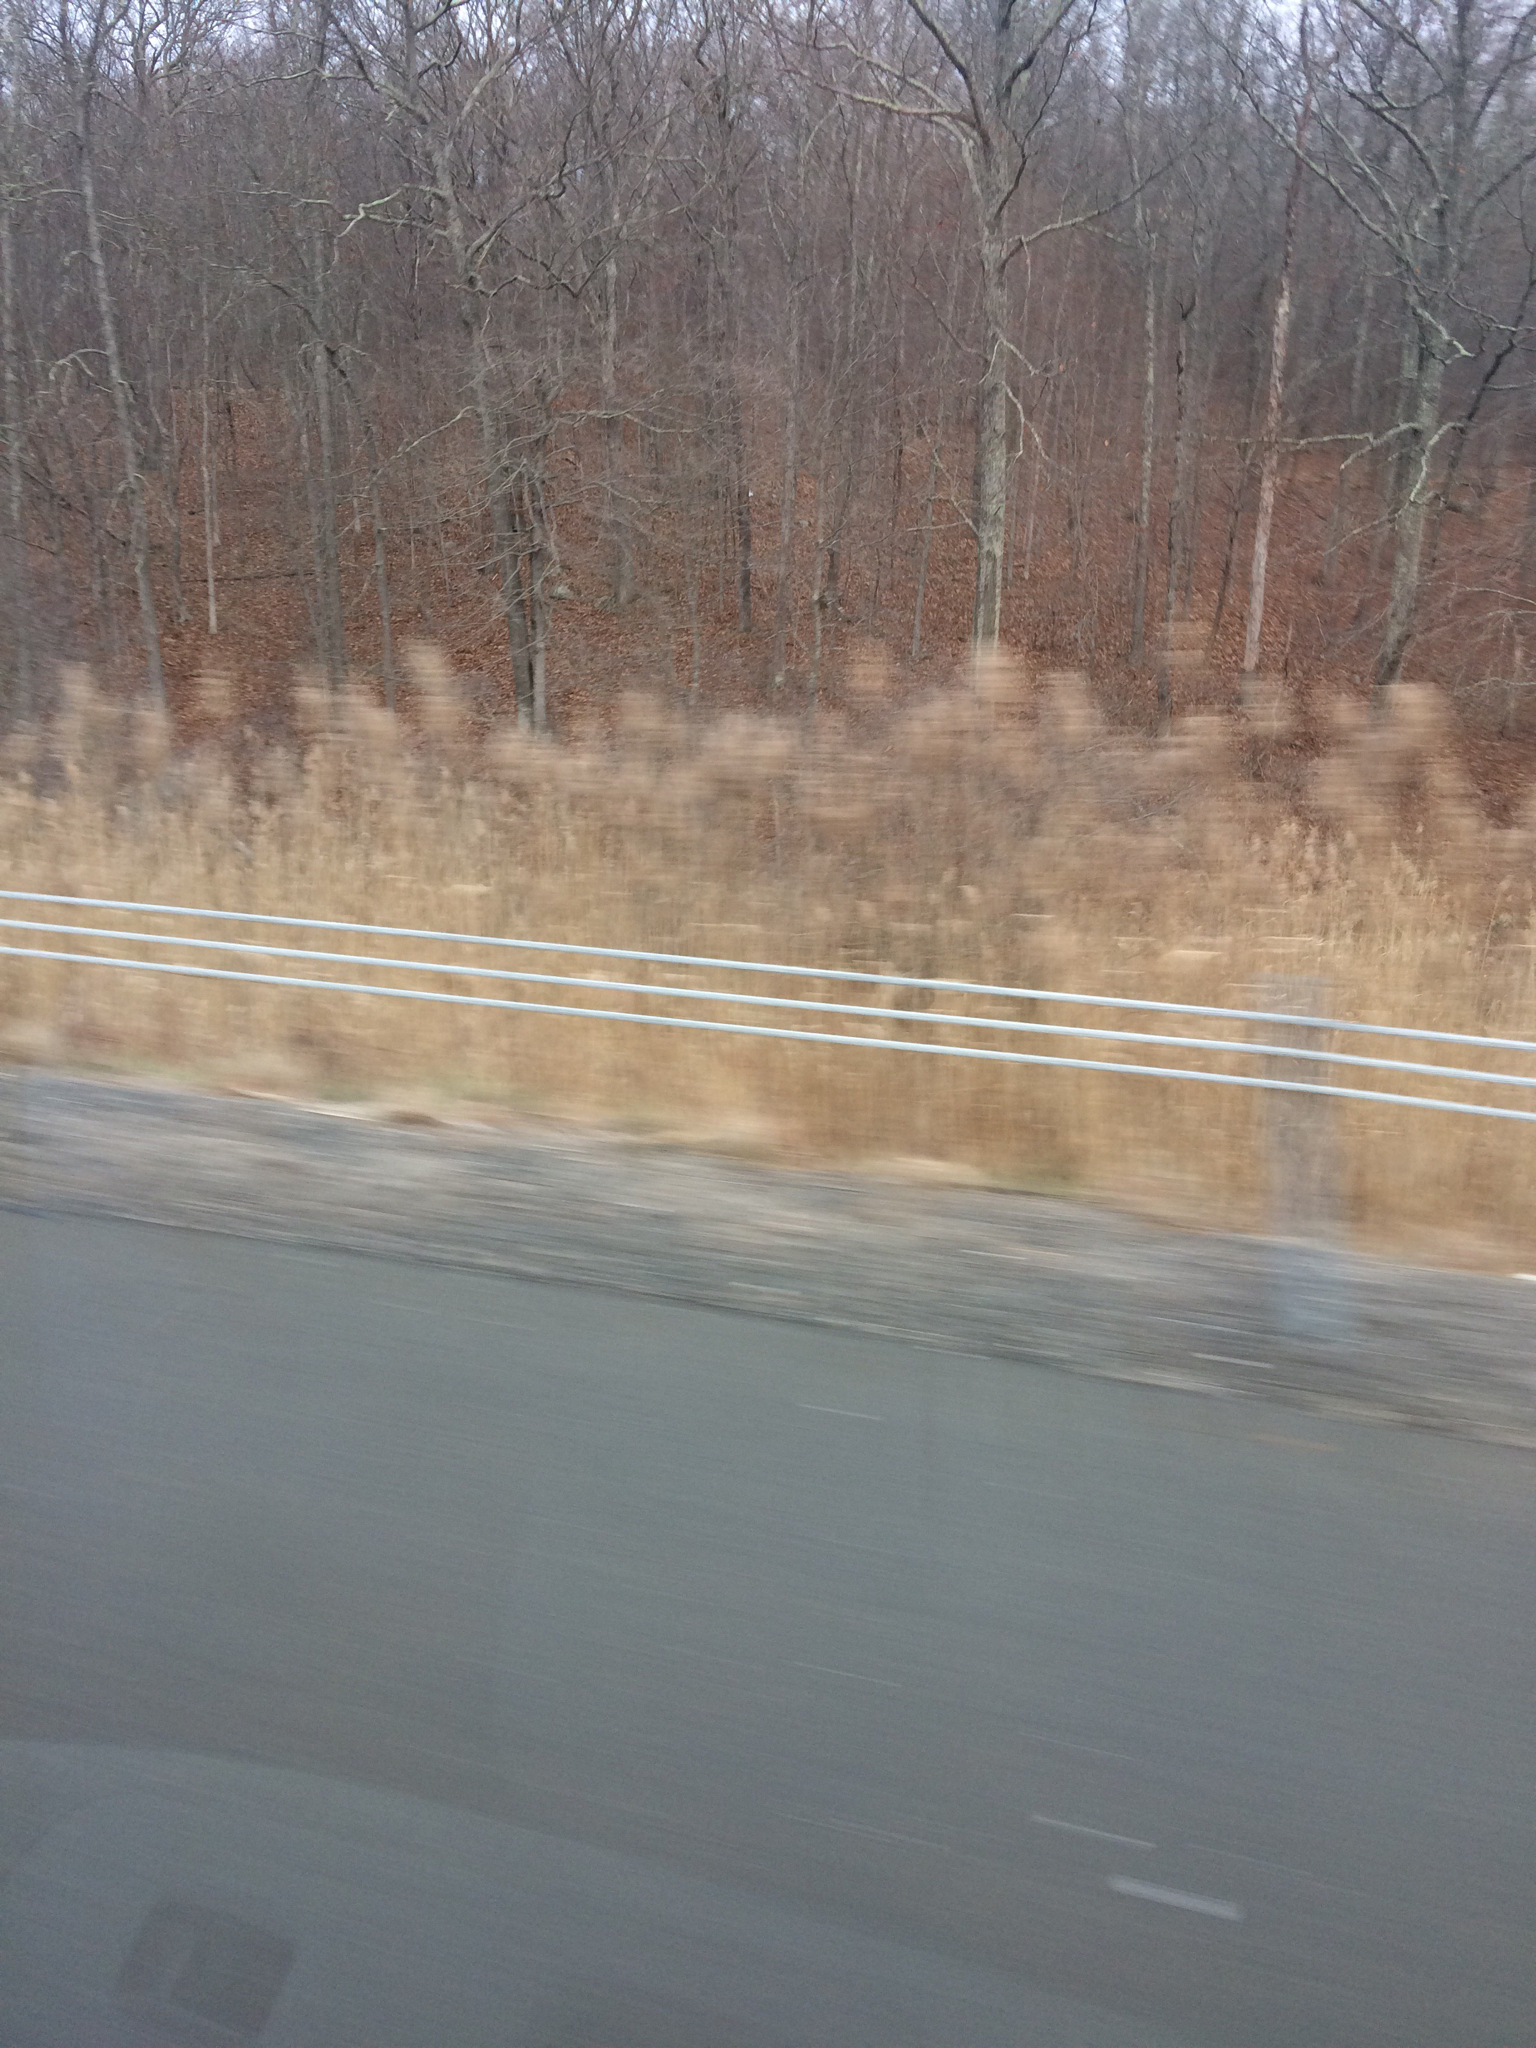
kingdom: Plantae
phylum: Tracheophyta
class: Liliopsida
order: Poales
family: Poaceae
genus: Phragmites
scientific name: Phragmites australis
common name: Common reed
